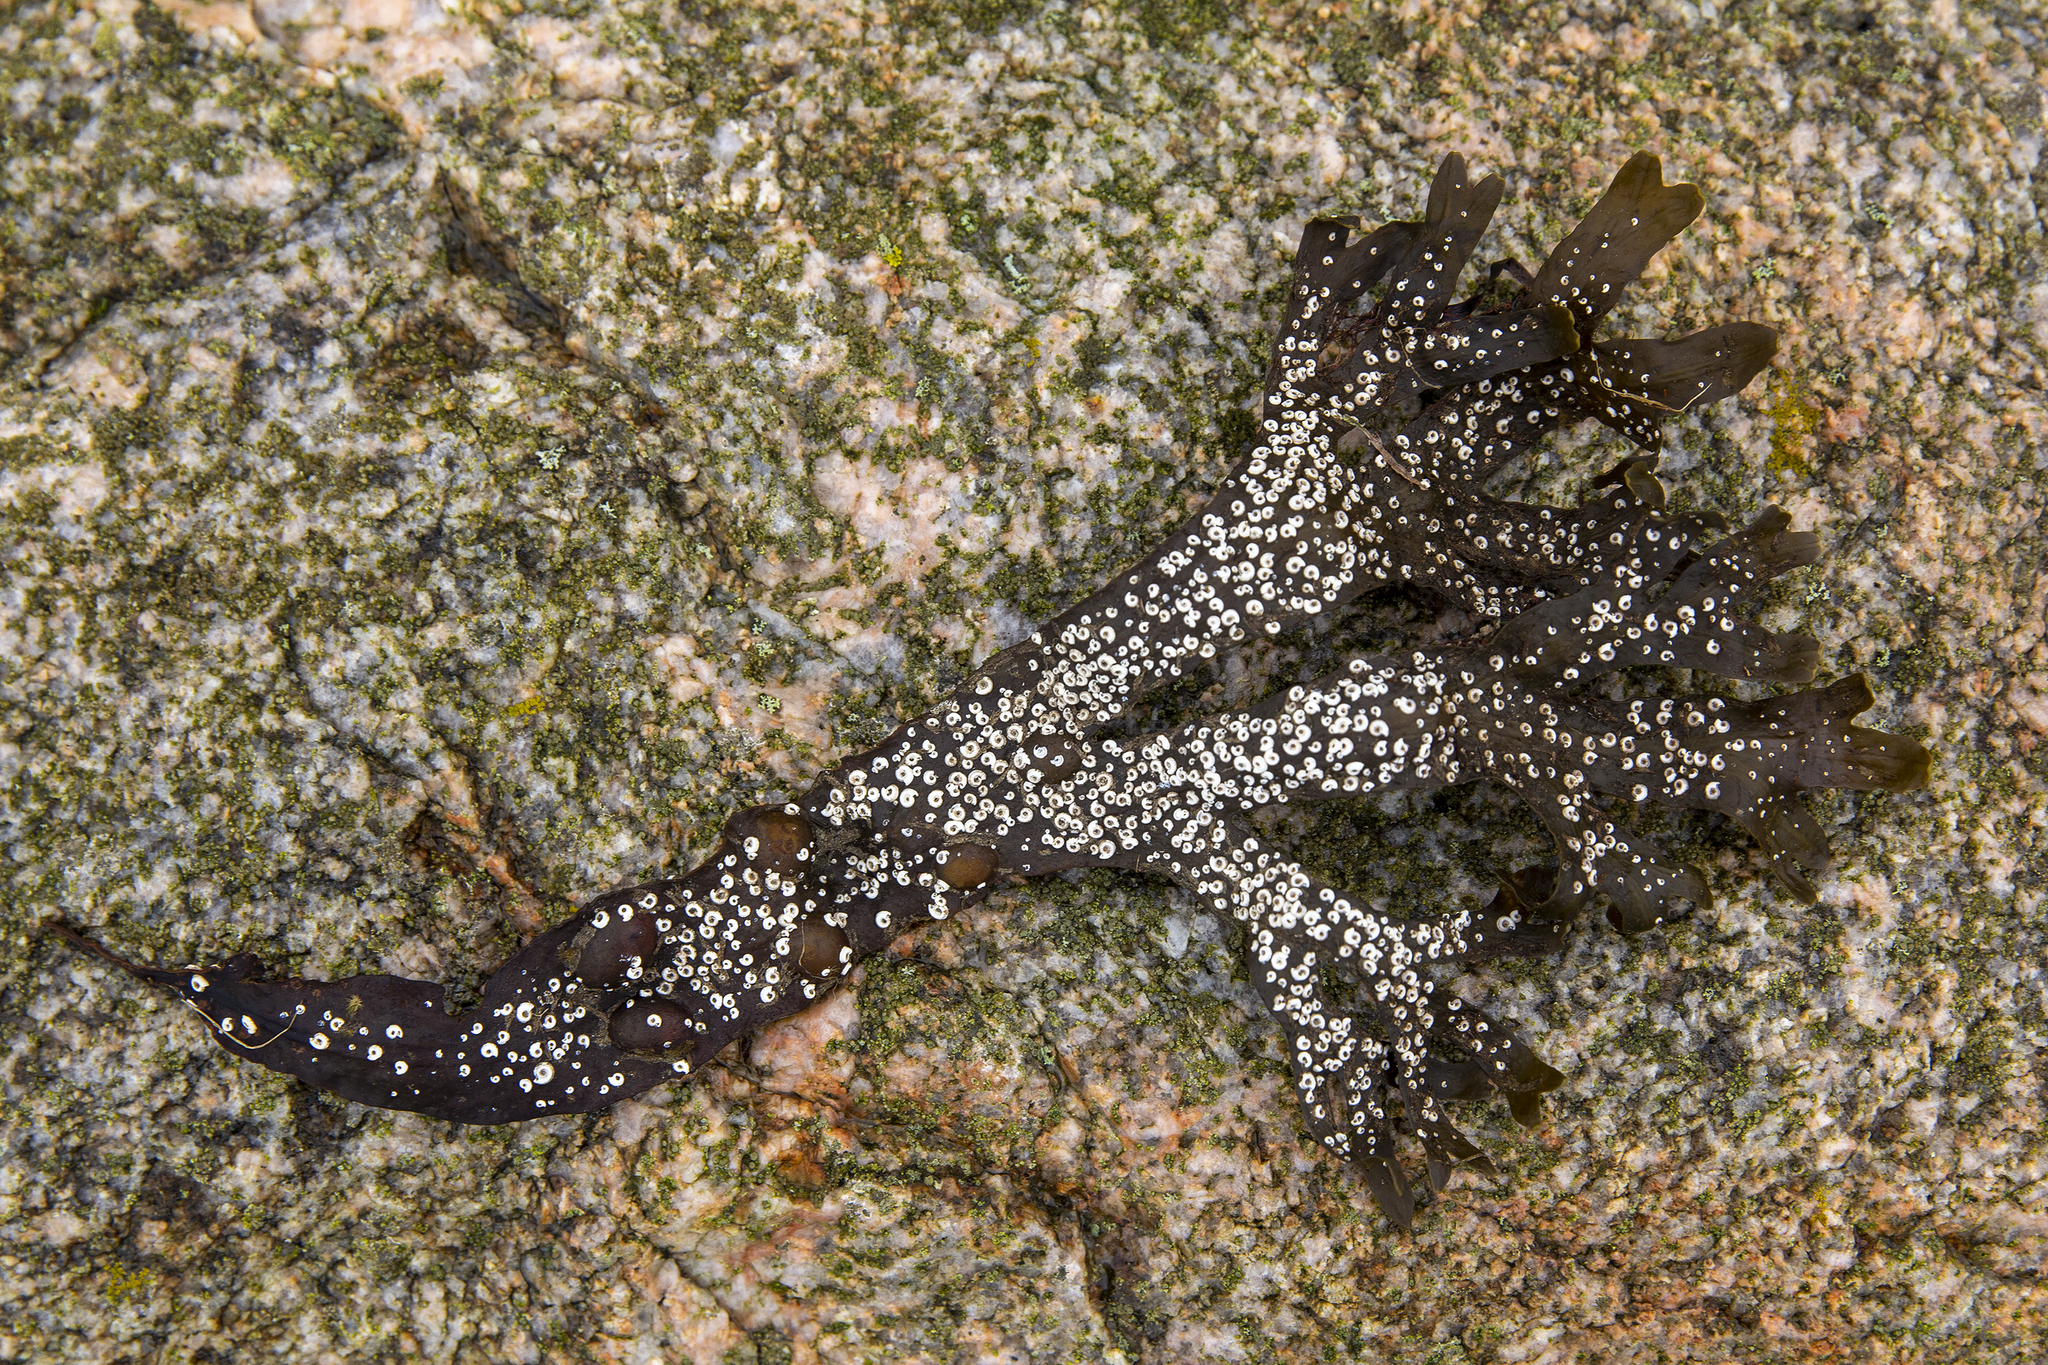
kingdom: Animalia
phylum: Annelida
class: Polychaeta
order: Sabellida
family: Serpulidae
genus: Spirorbis
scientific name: Spirorbis spirorbis
